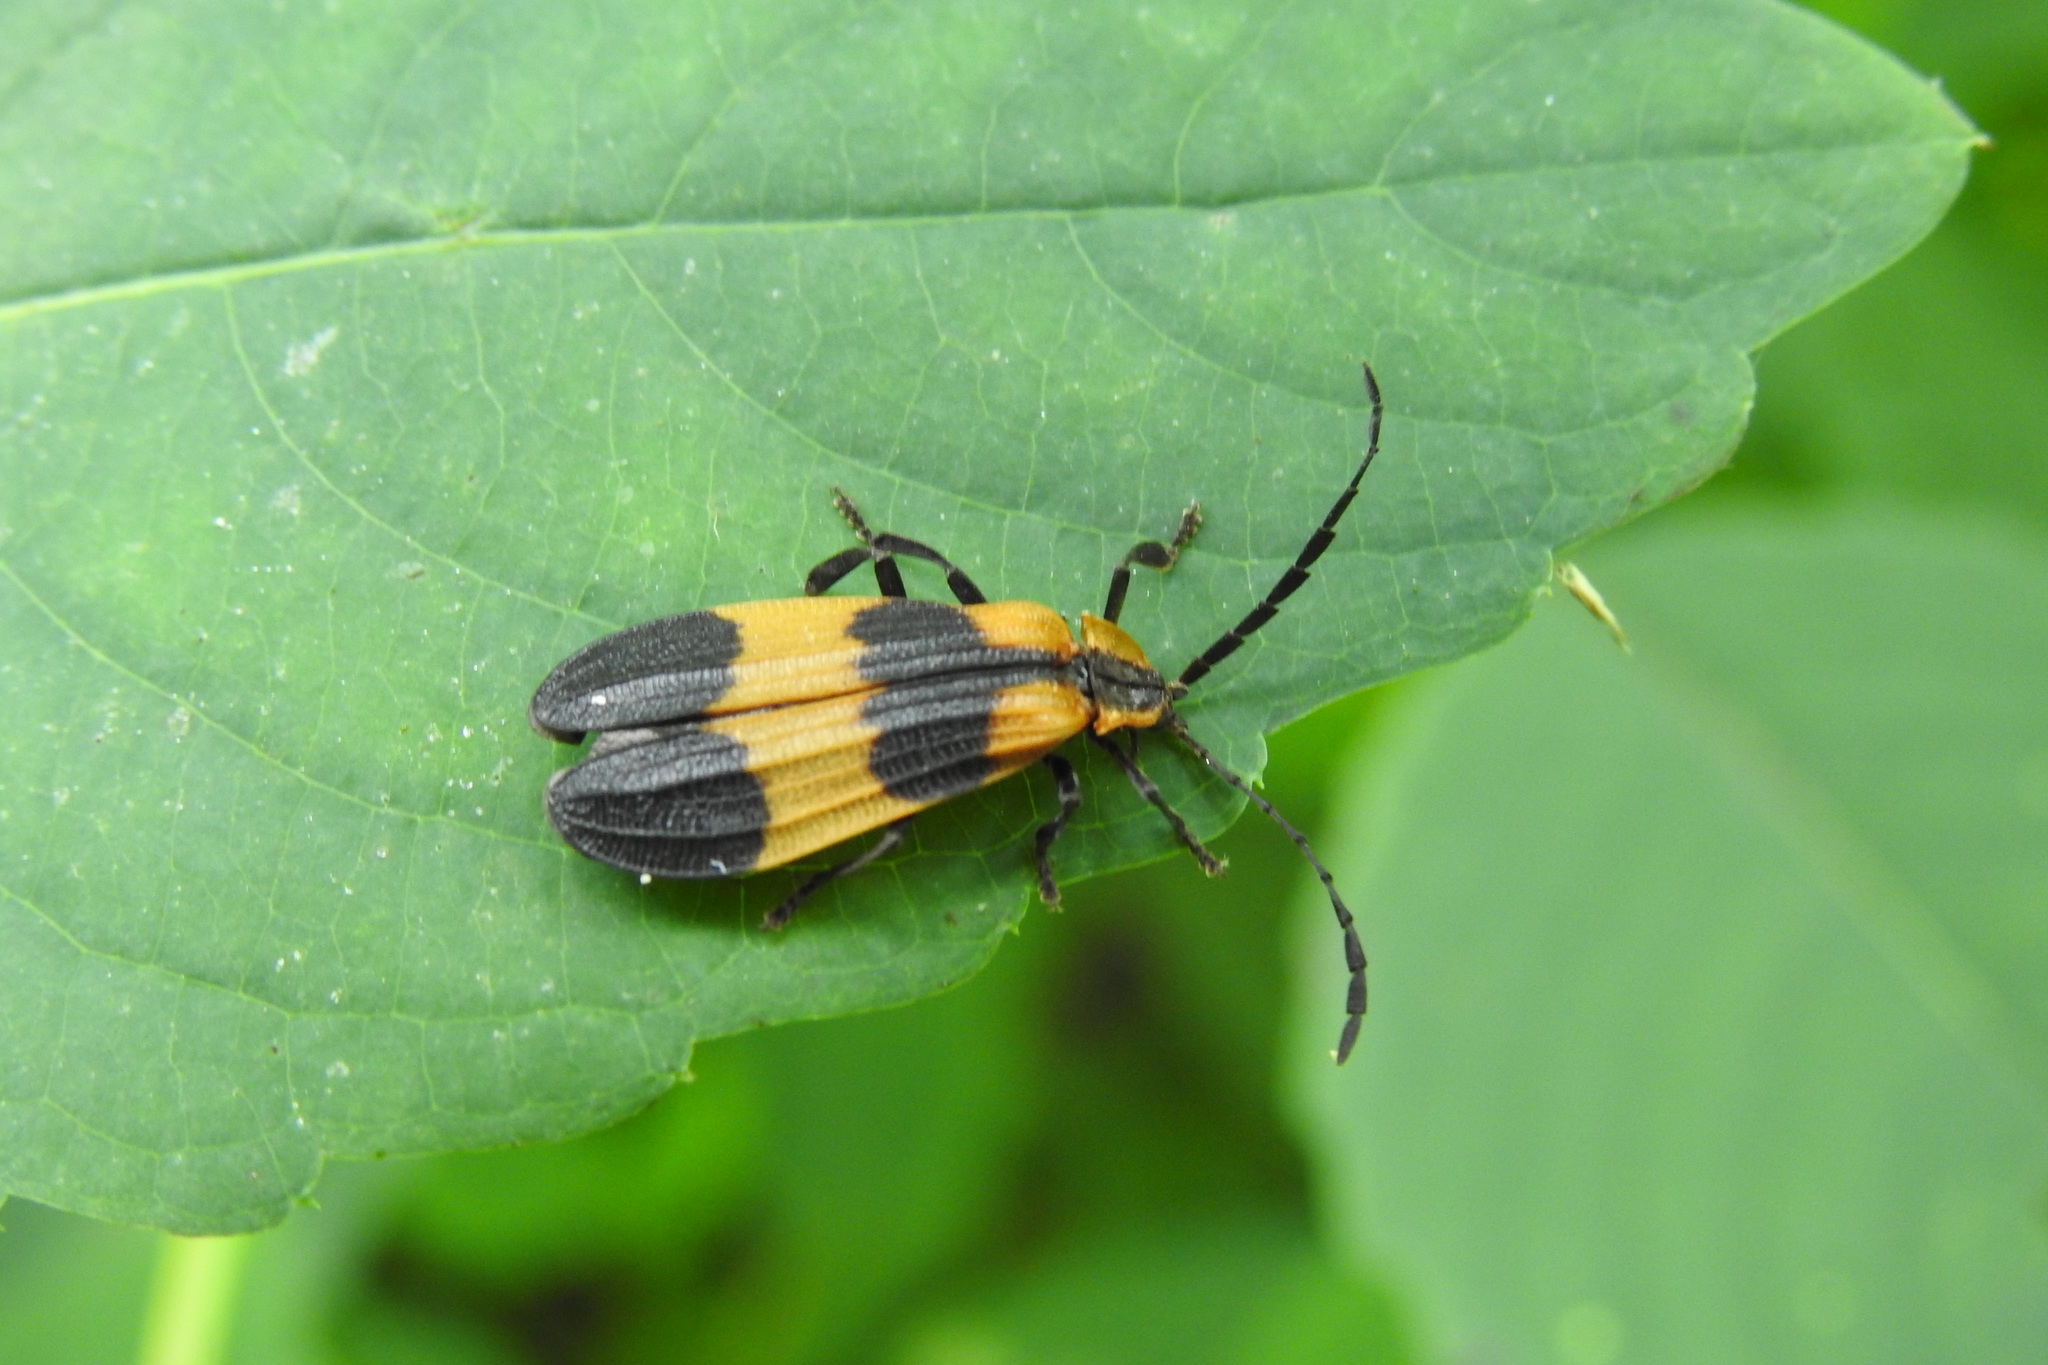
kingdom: Animalia
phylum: Arthropoda
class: Insecta
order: Coleoptera
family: Lycidae
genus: Calopteron
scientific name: Calopteron reticulatum
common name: Banded net-winged beetle
